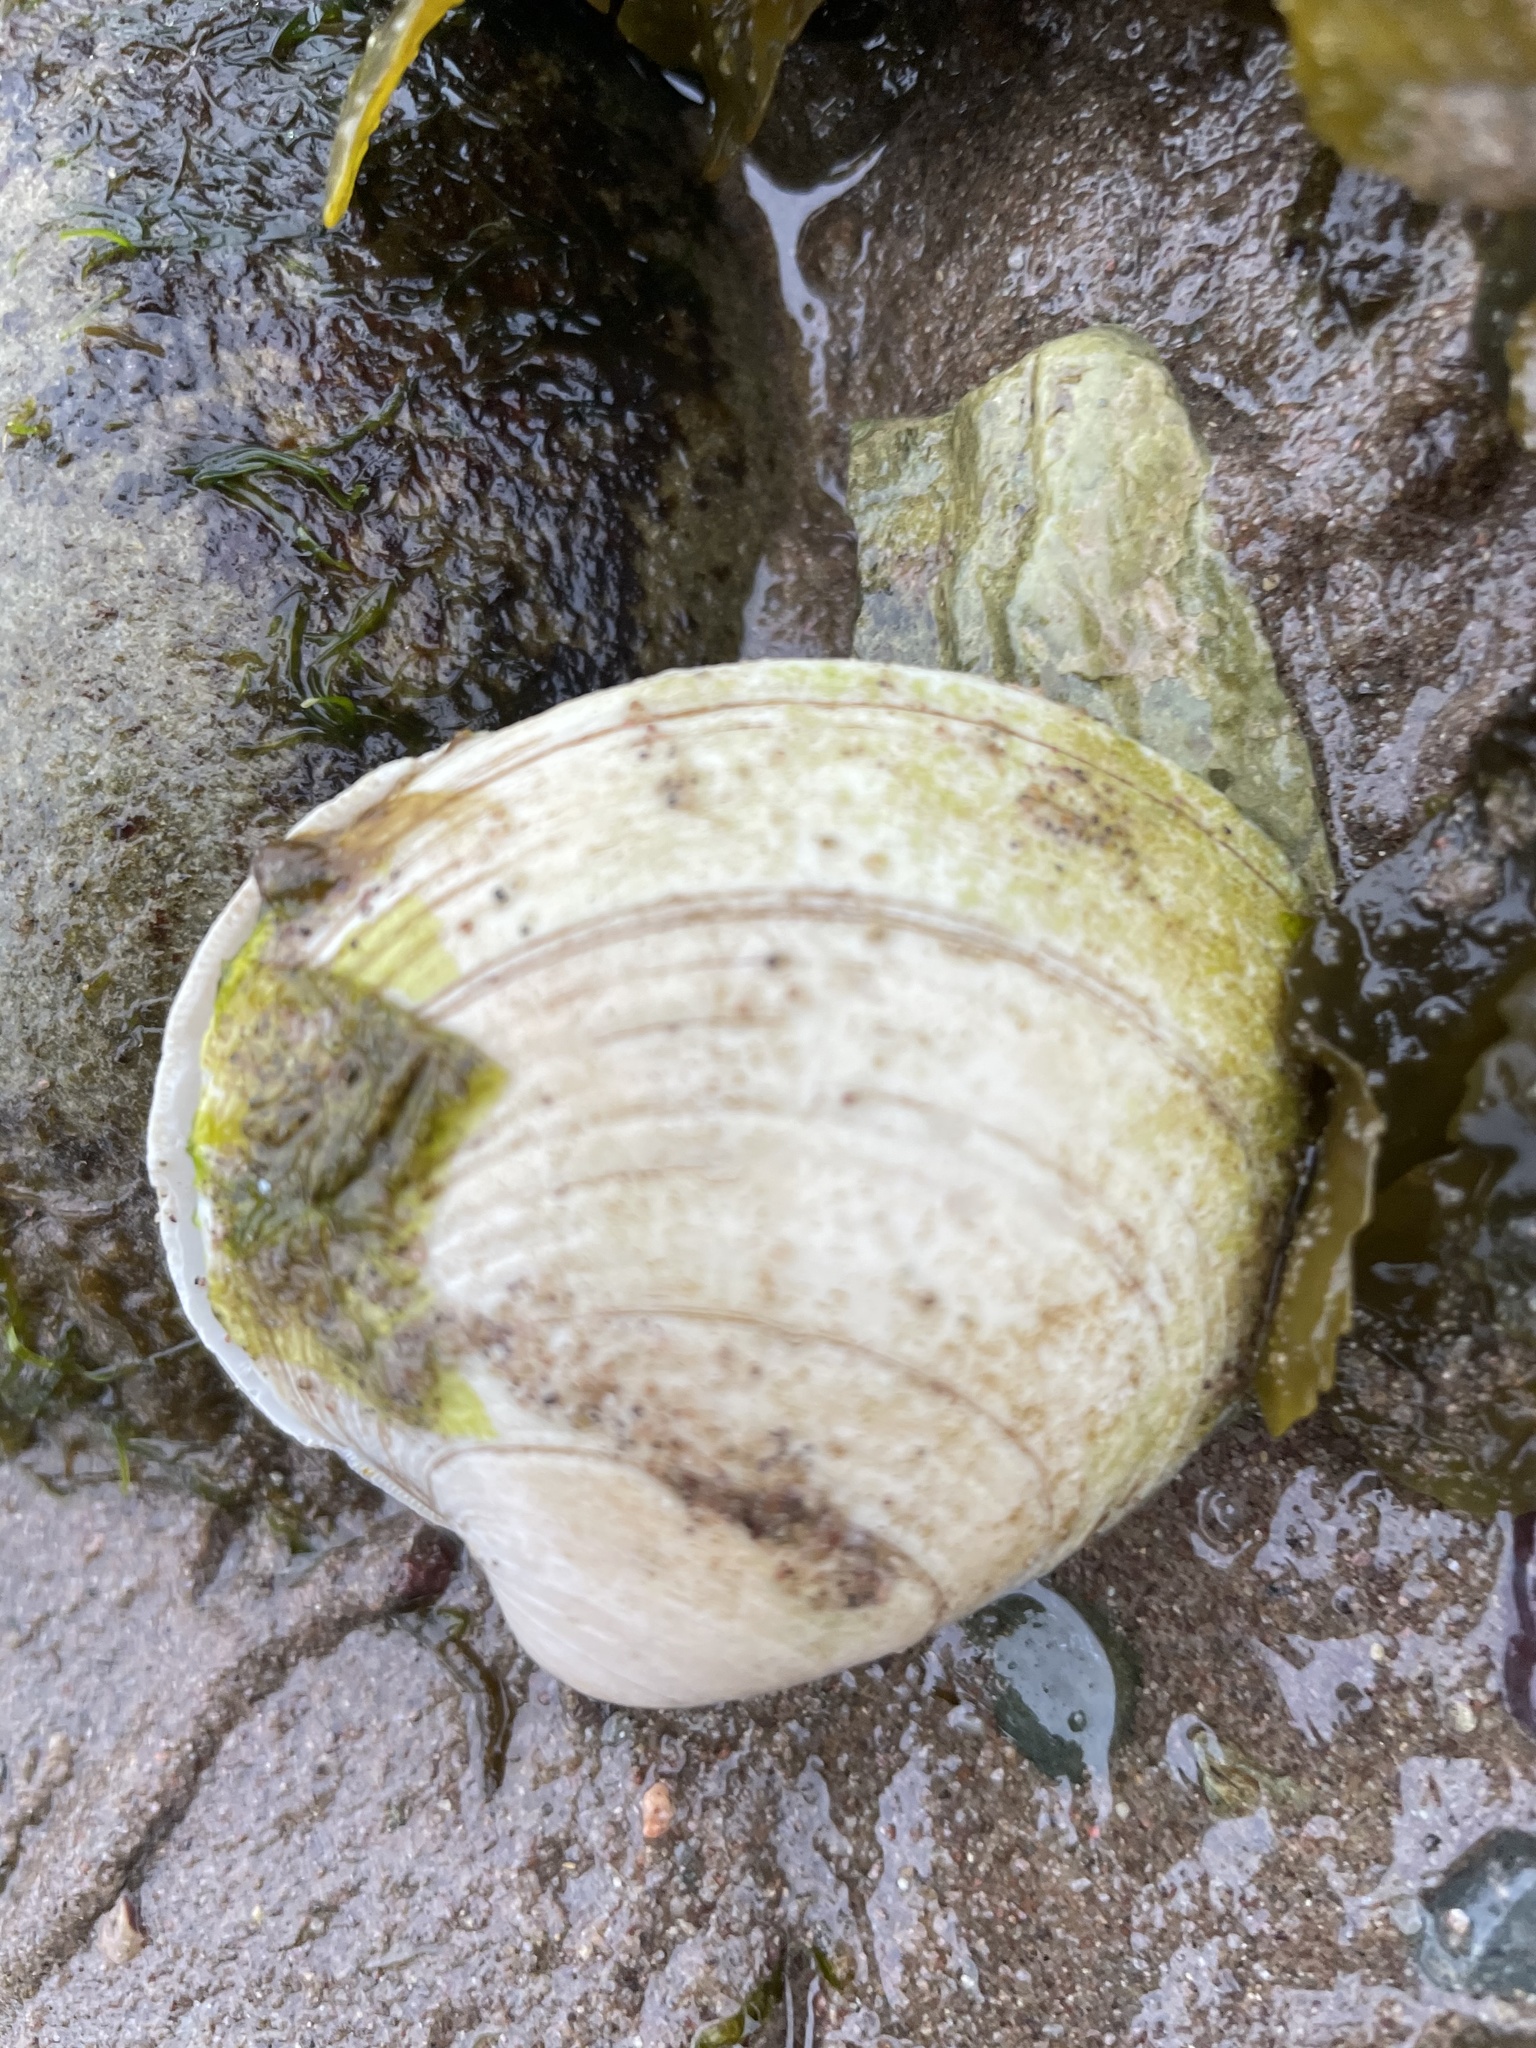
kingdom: Animalia
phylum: Mollusca
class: Bivalvia
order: Venerida
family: Veneridae
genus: Mercenaria
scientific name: Mercenaria mercenaria
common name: American hard-shelled clam
